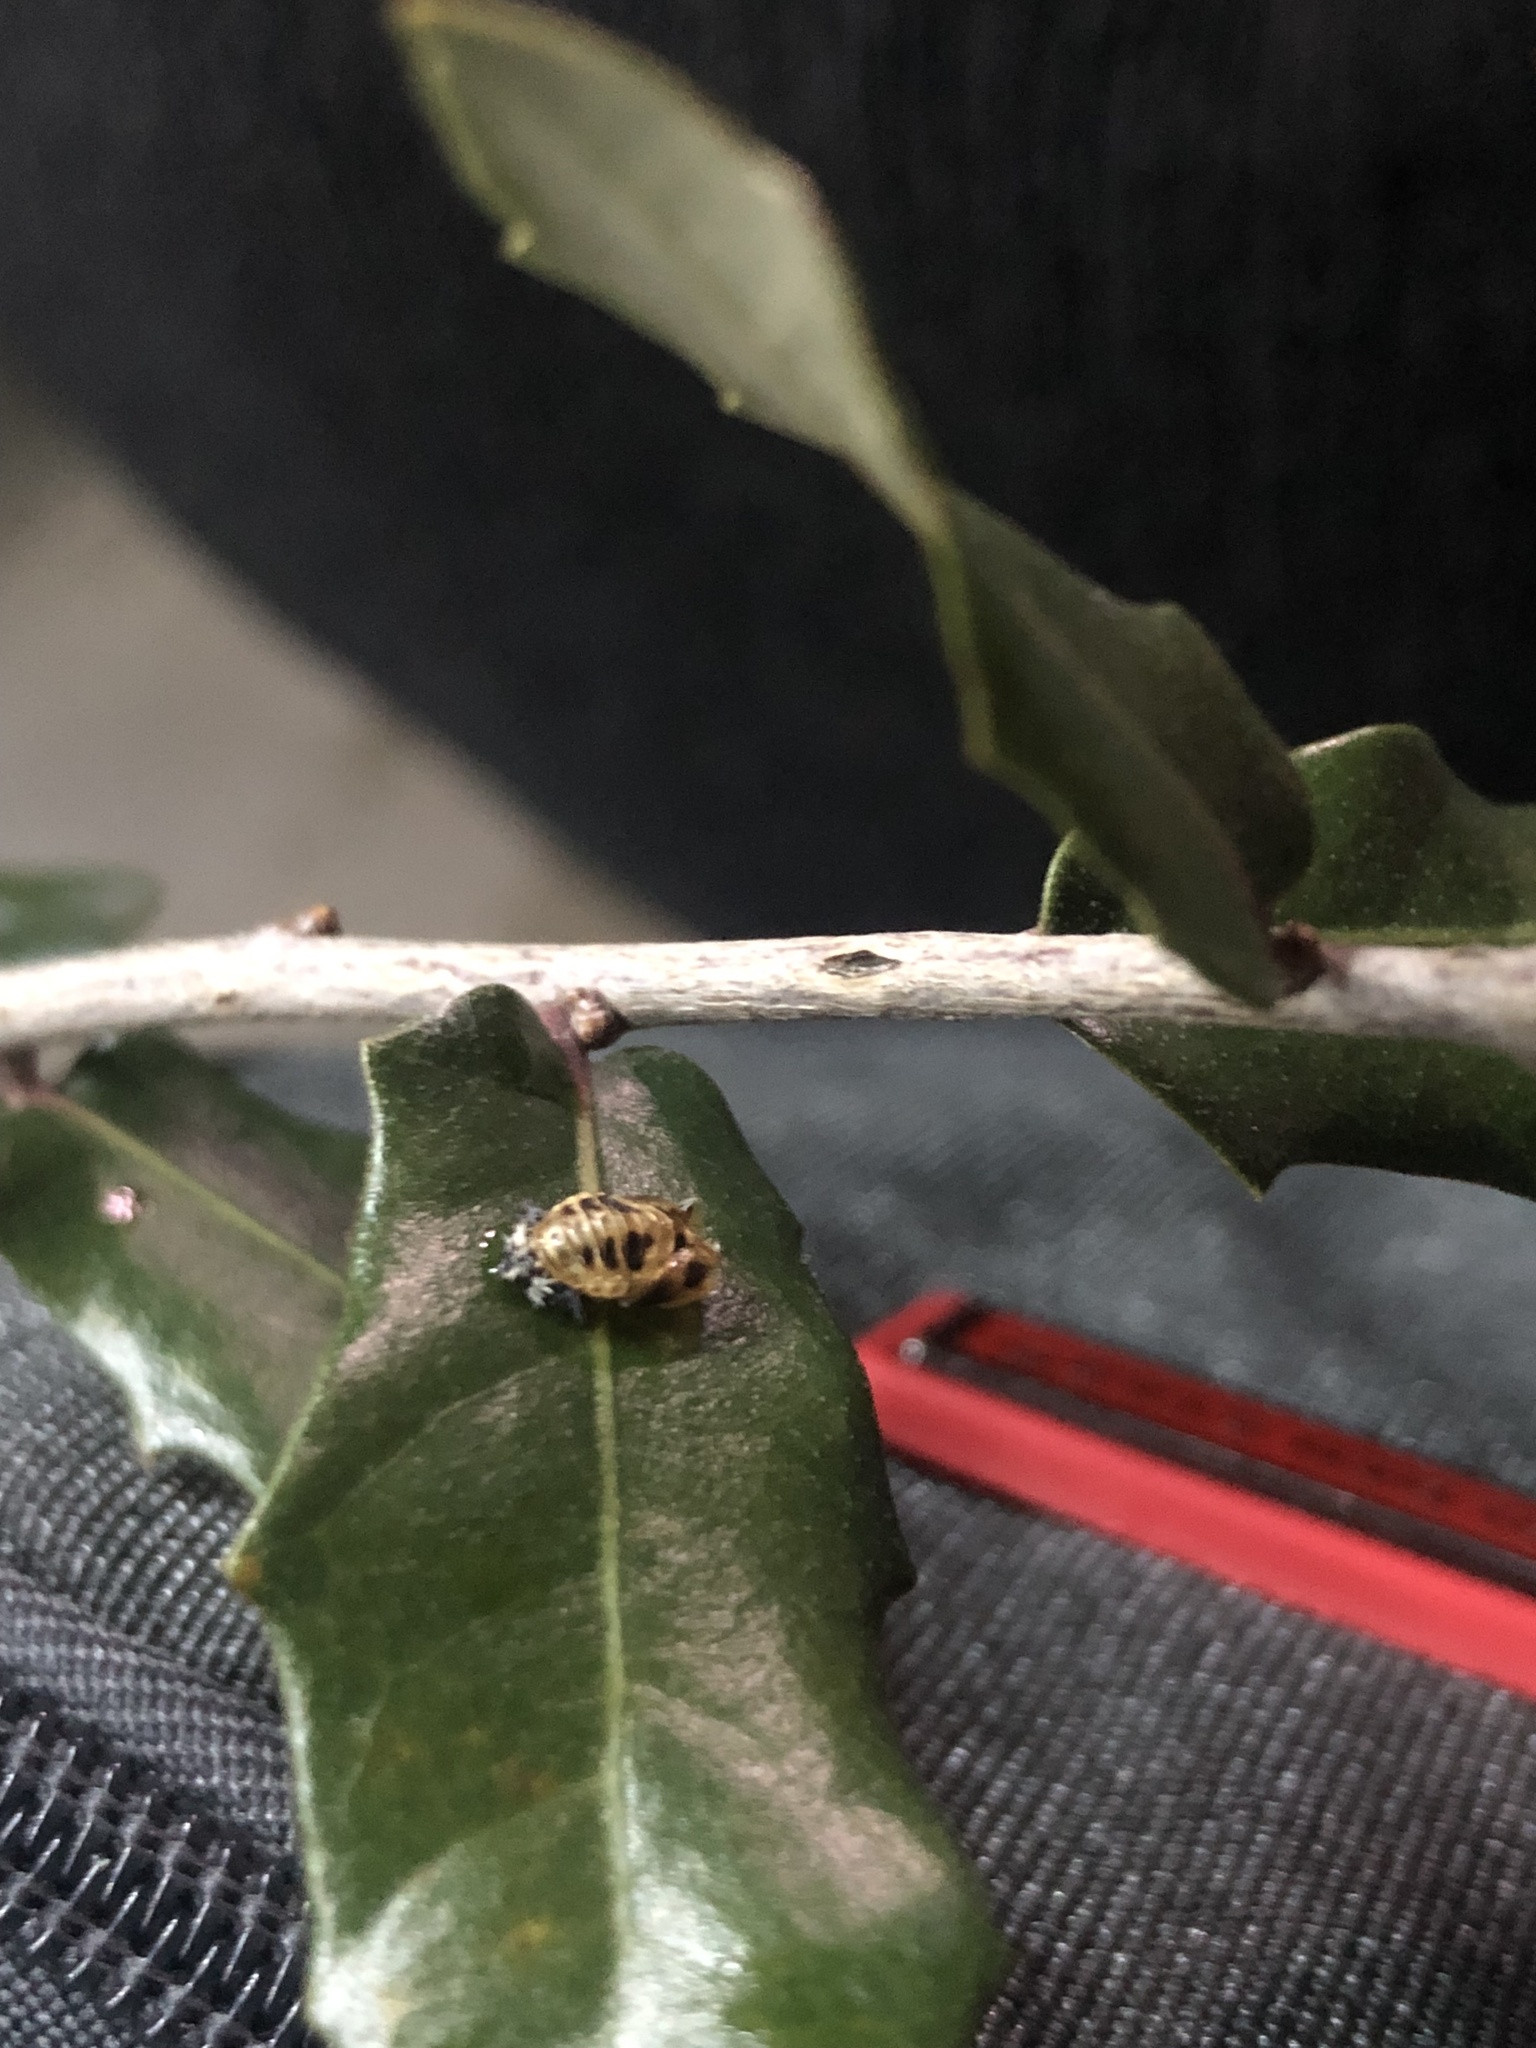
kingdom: Animalia
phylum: Arthropoda
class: Insecta
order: Coleoptera
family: Coccinellidae
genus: Harmonia
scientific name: Harmonia axyridis
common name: Harlequin ladybird
